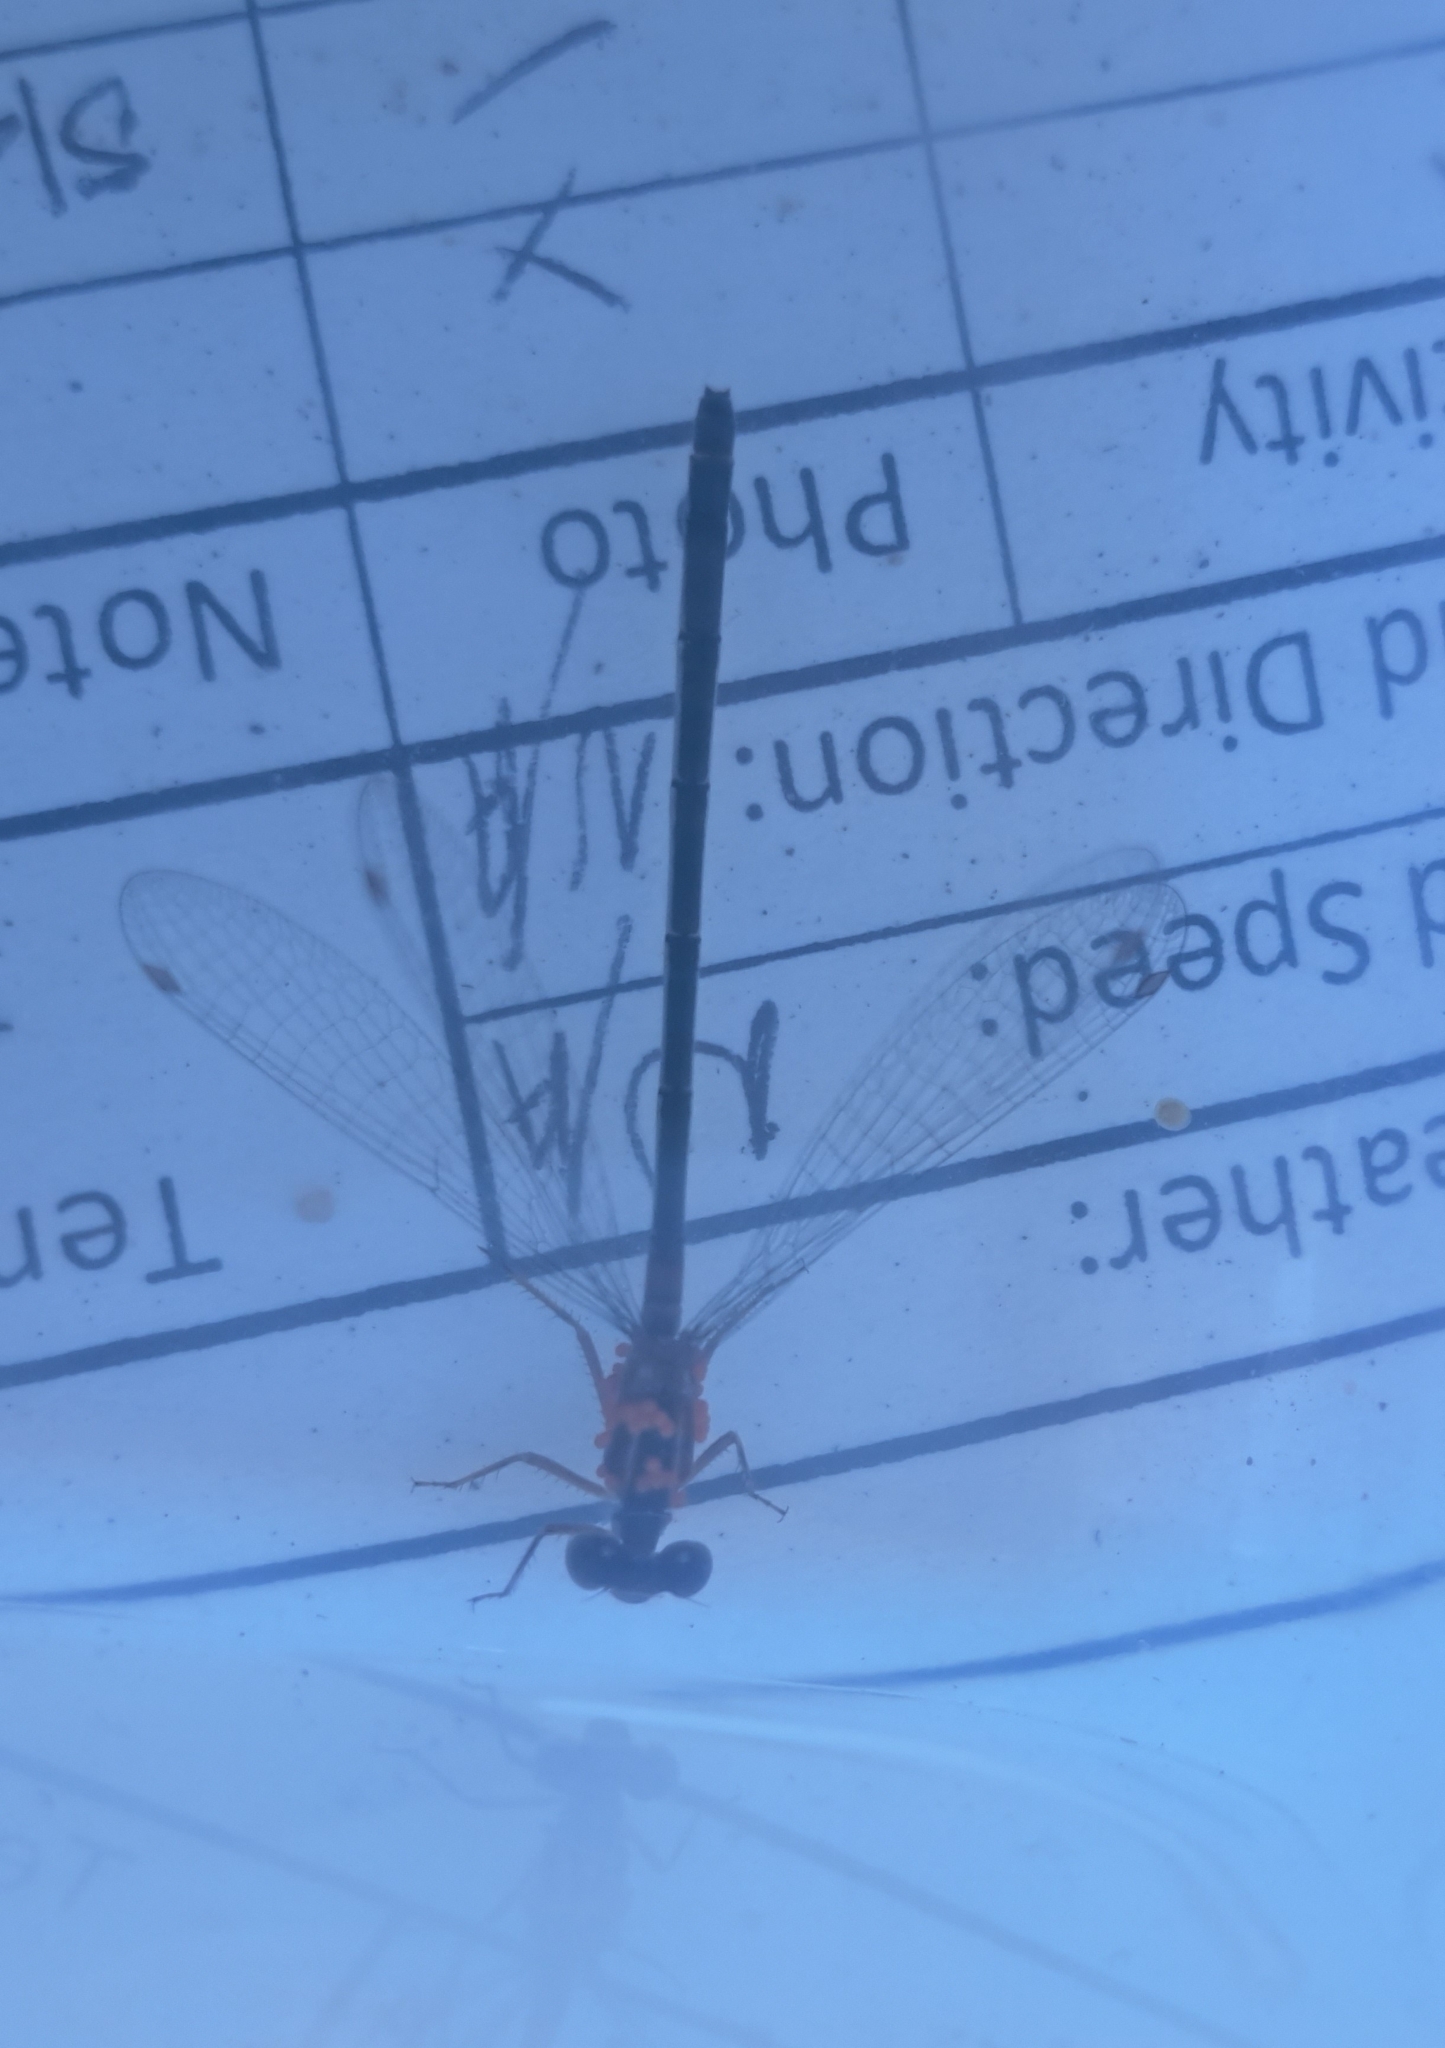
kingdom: Animalia
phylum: Arthropoda
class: Insecta
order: Odonata
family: Coenagrionidae
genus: Ischnura
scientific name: Ischnura senegalensis
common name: Tropical bluetail
